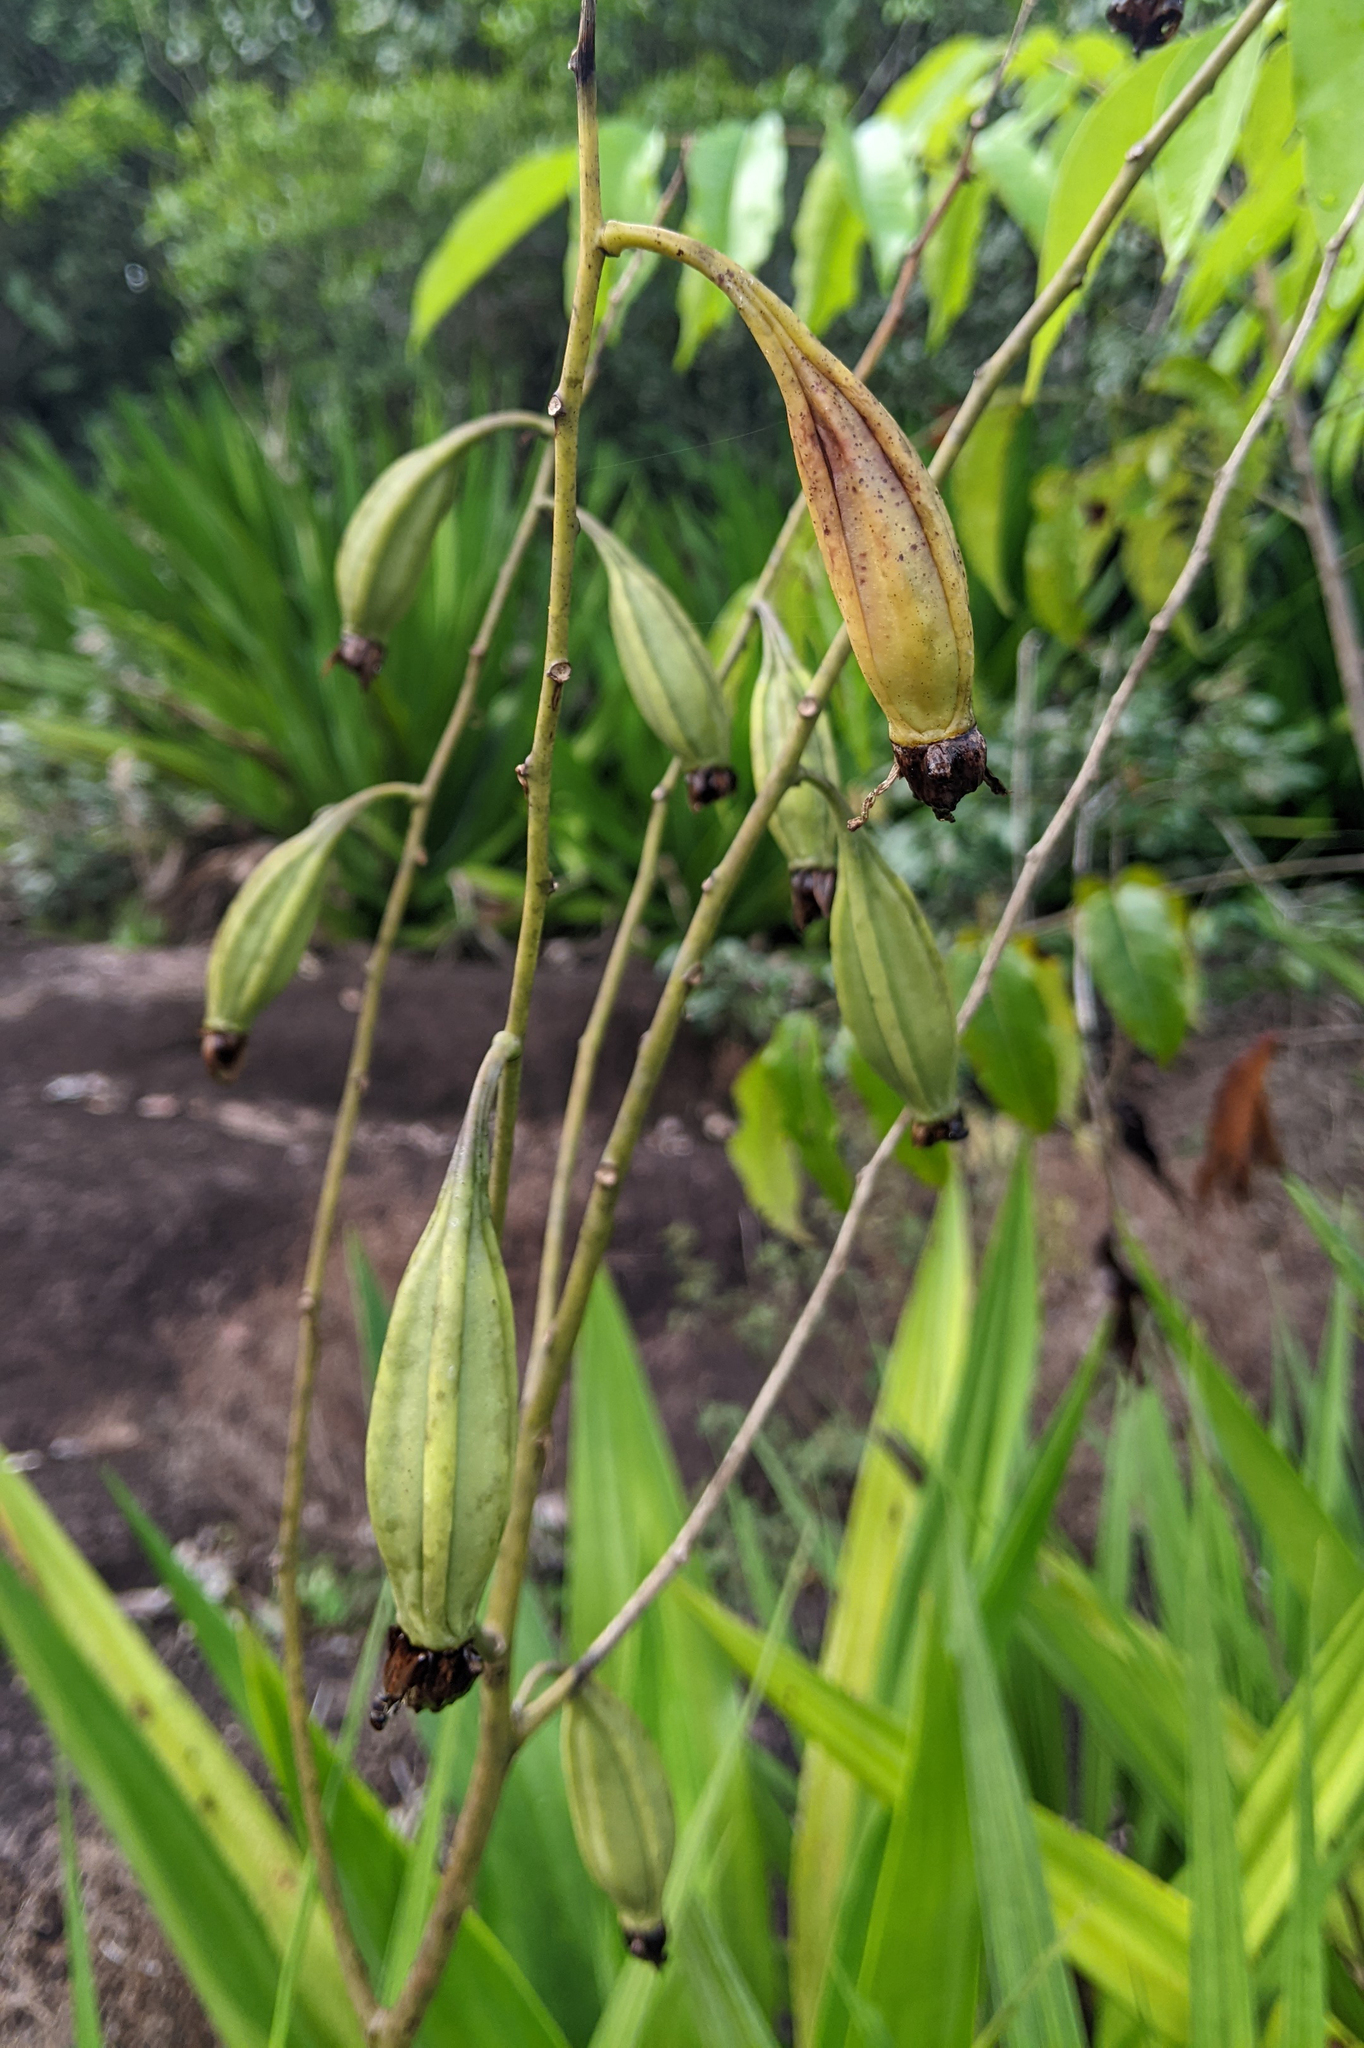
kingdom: Plantae
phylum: Tracheophyta
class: Liliopsida
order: Asparagales
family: Orchidaceae
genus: Cyrtopodium
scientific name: Cyrtopodium andersonii
